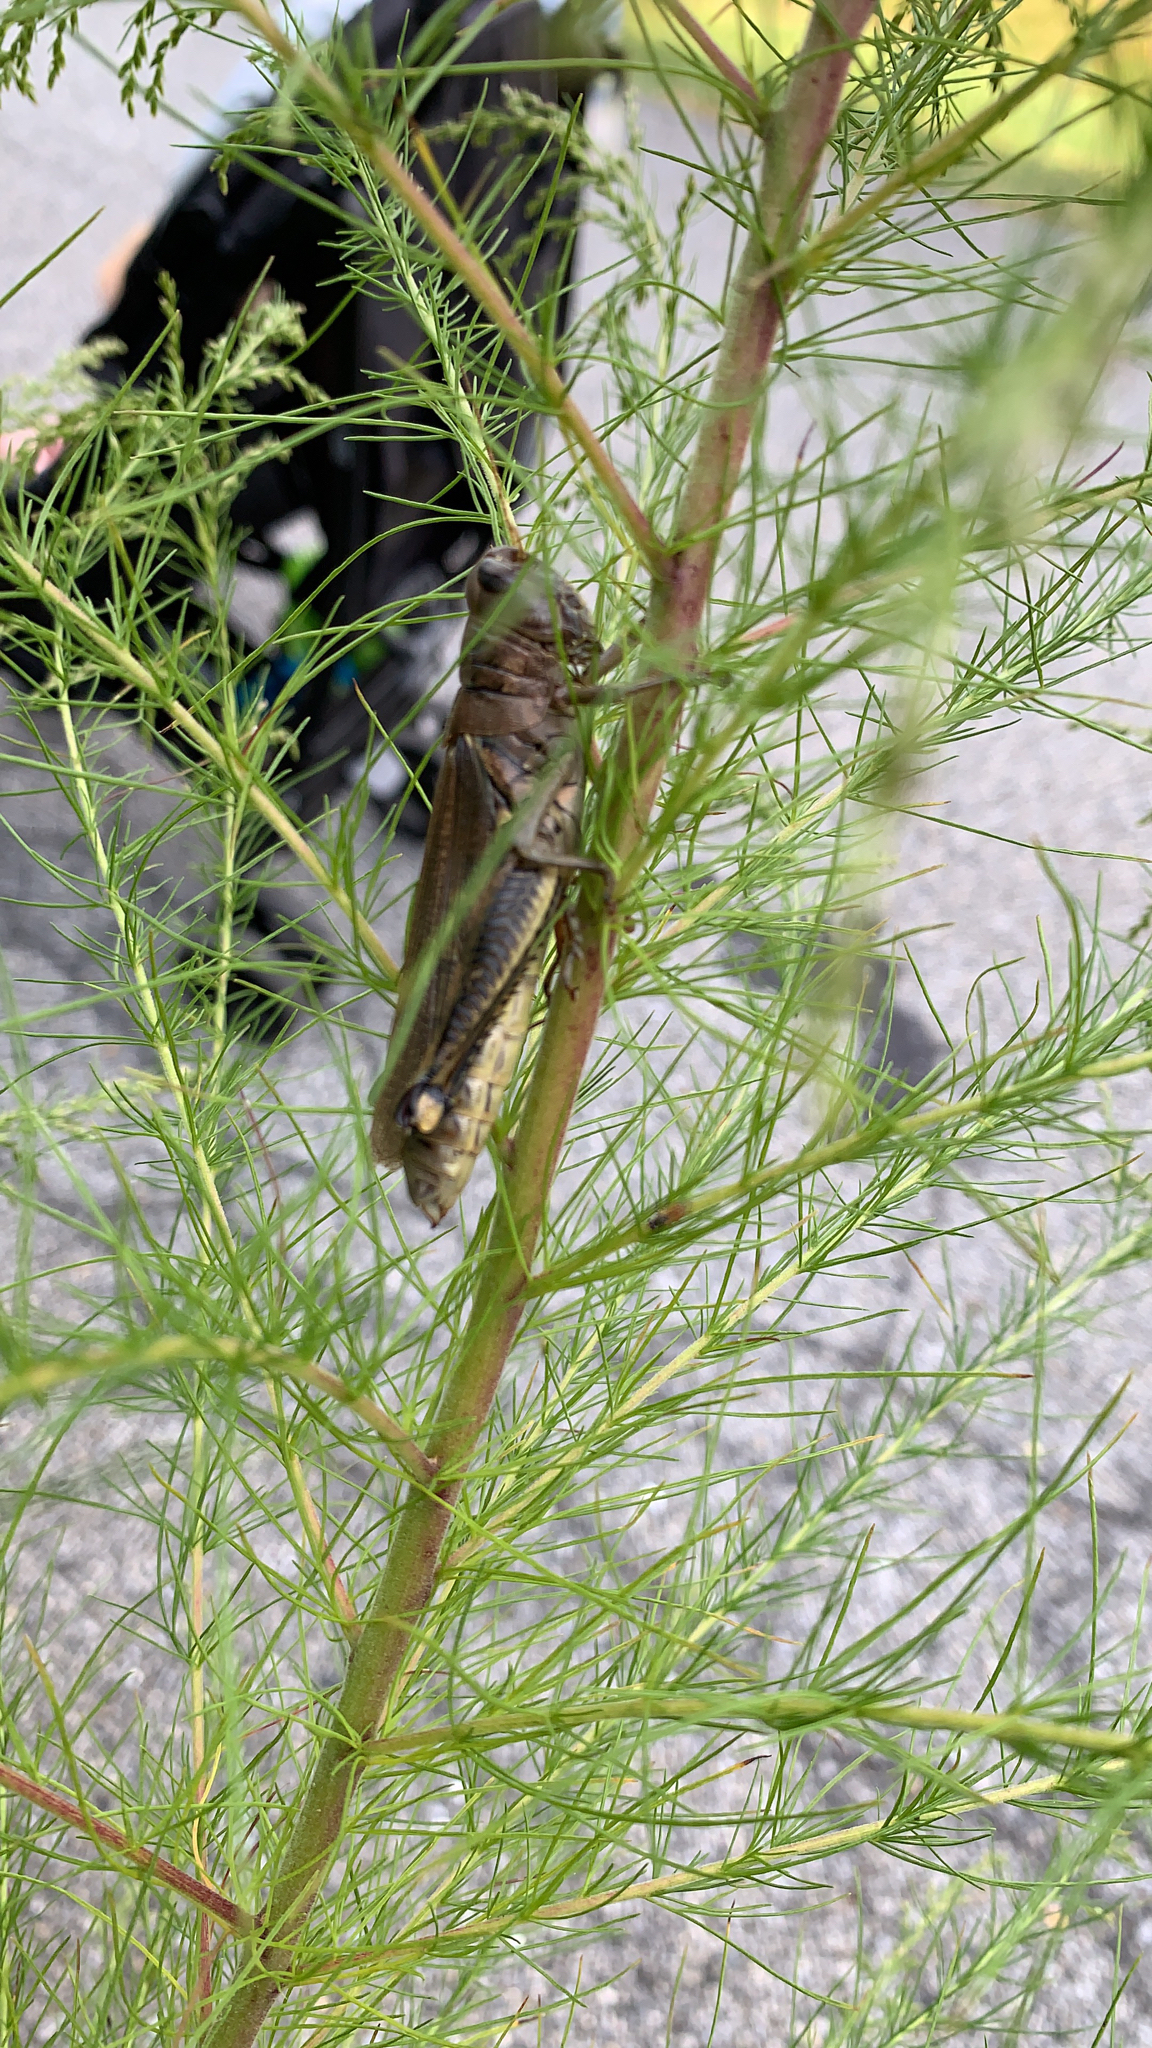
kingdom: Animalia
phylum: Arthropoda
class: Insecta
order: Orthoptera
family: Acrididae
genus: Melanoplus
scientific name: Melanoplus differentialis
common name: Differential grasshopper
